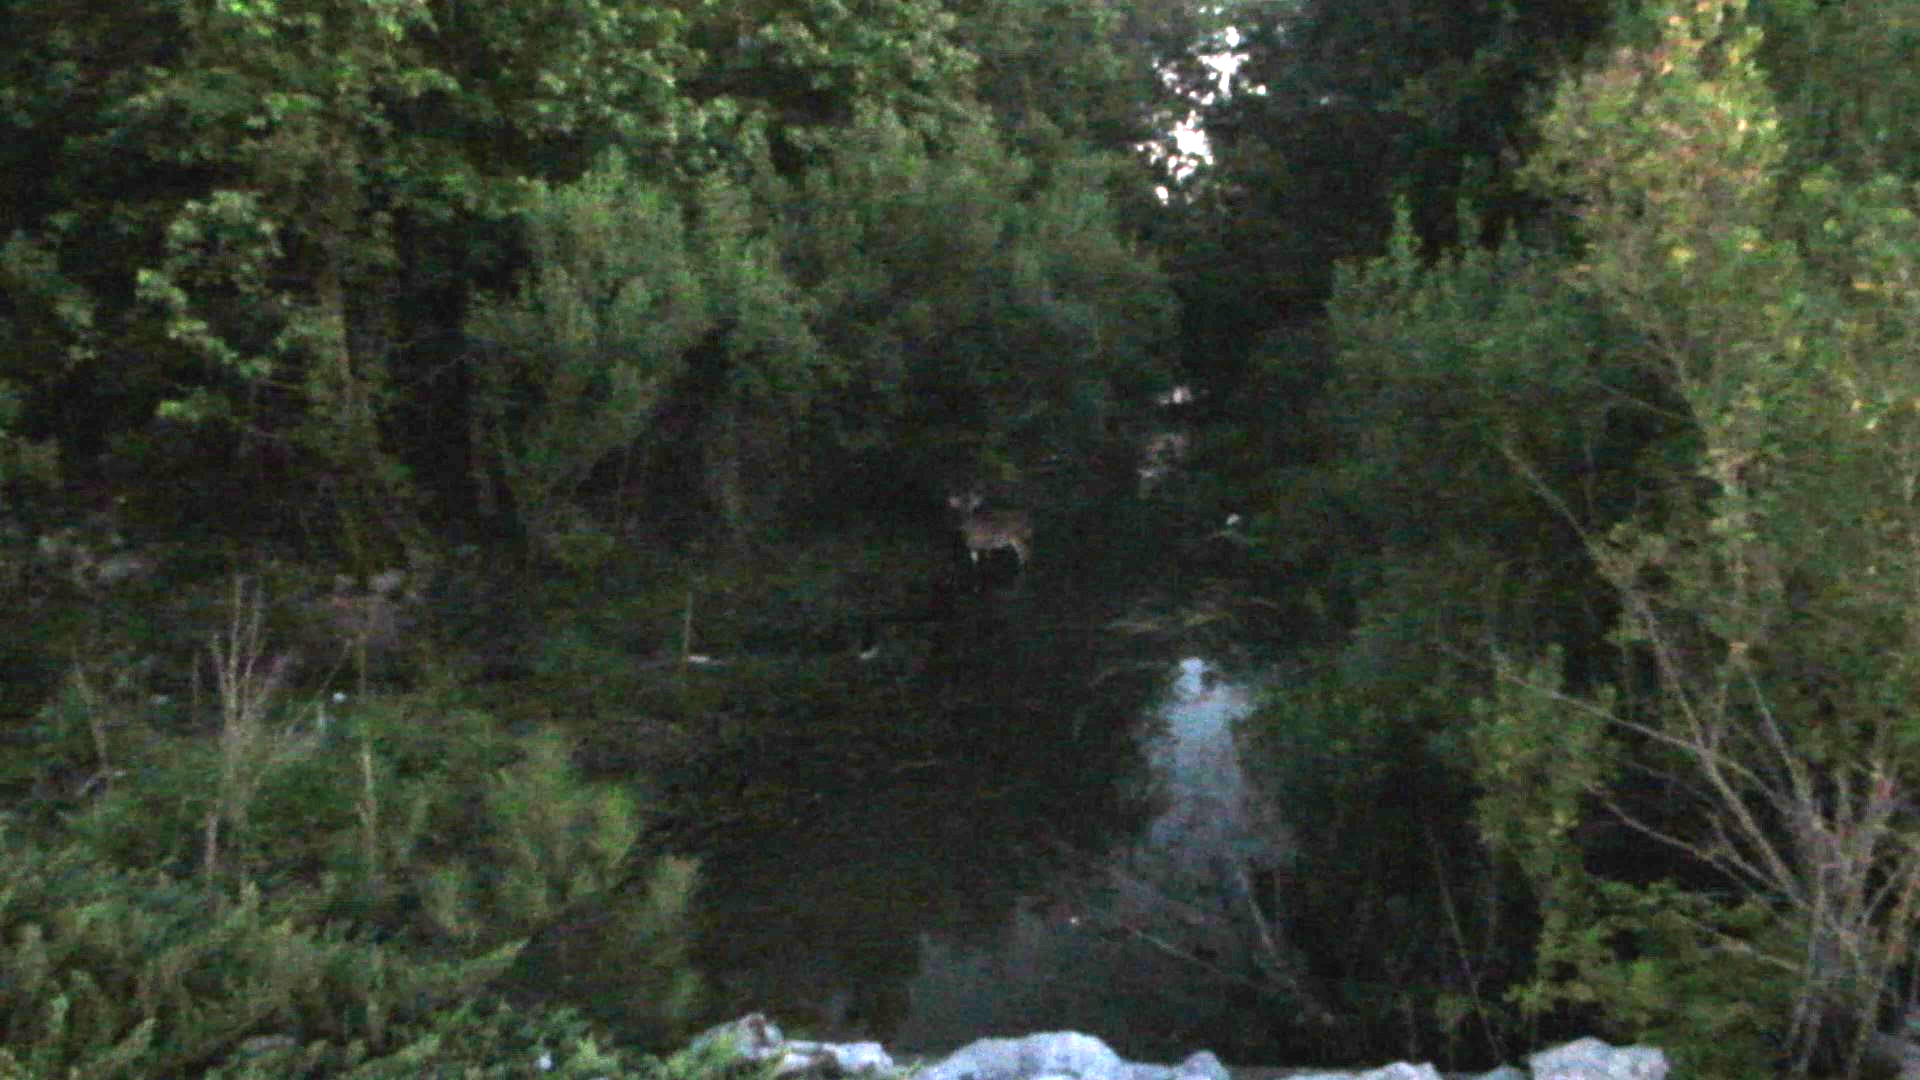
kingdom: Animalia
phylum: Chordata
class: Mammalia
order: Artiodactyla
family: Cervidae
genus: Odocoileus
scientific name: Odocoileus virginianus
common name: White-tailed deer
